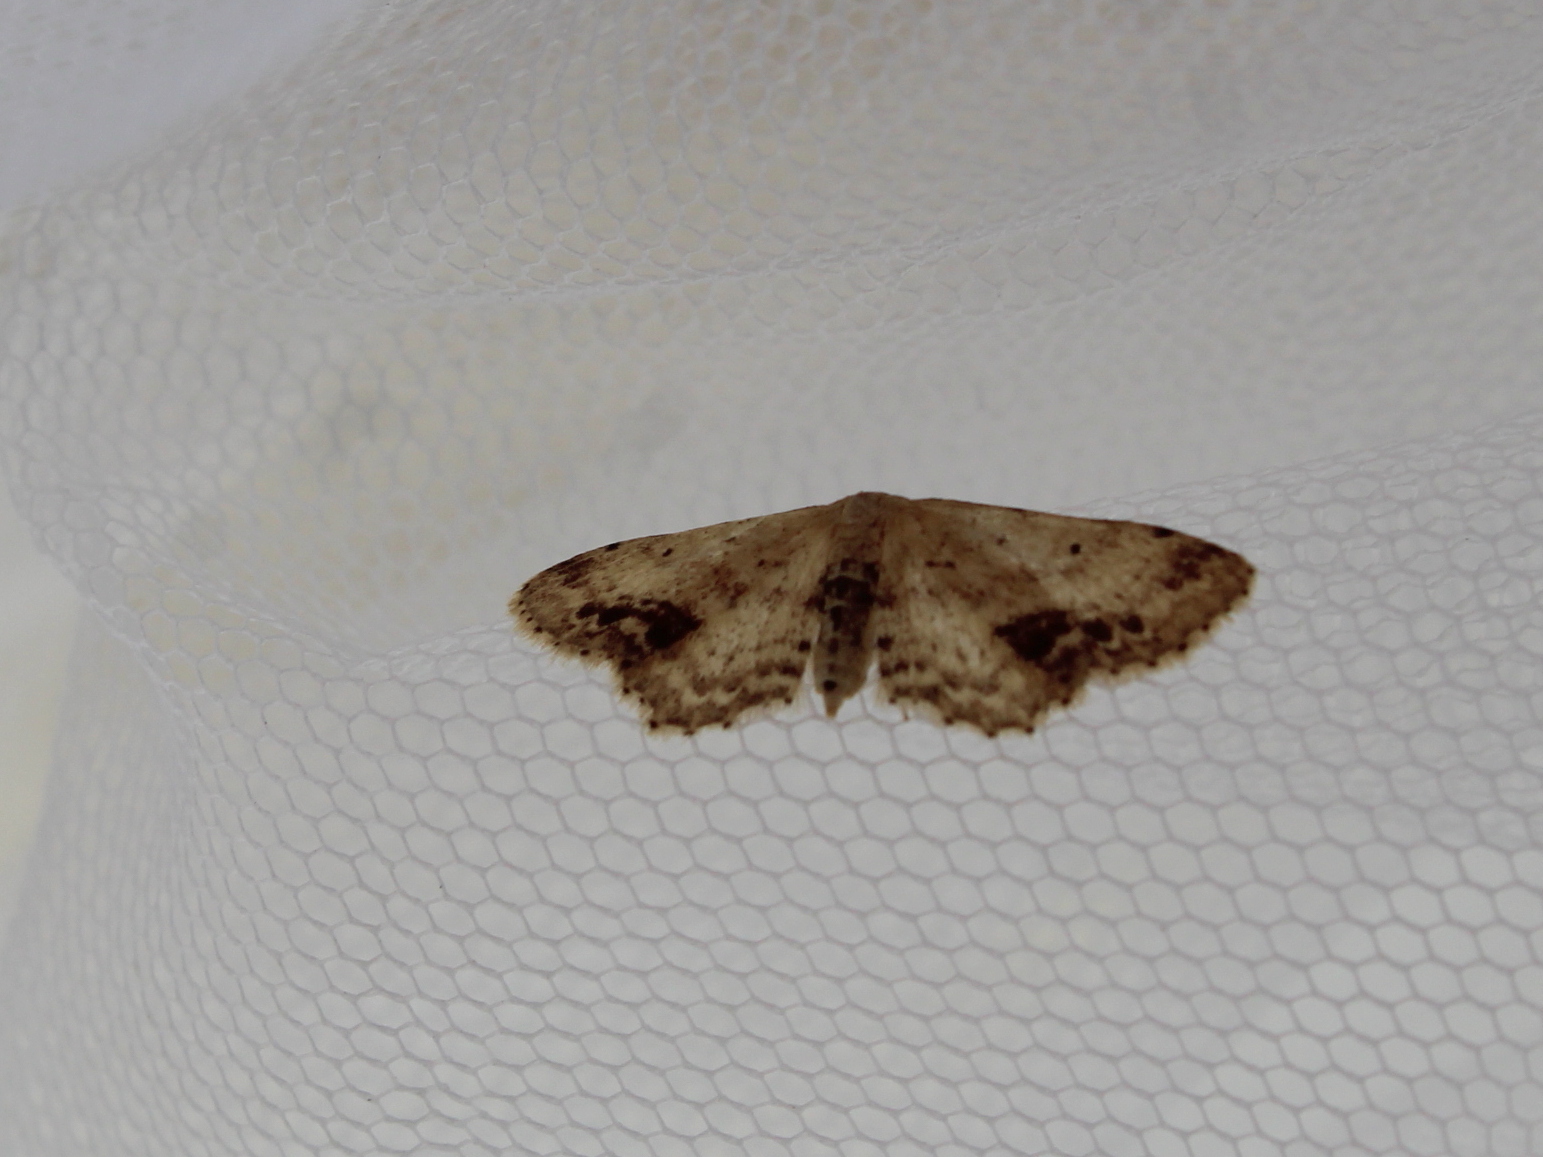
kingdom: Animalia
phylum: Arthropoda
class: Insecta
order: Lepidoptera
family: Geometridae
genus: Idaea
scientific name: Idaea dimidiata
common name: Single-dotted wave
